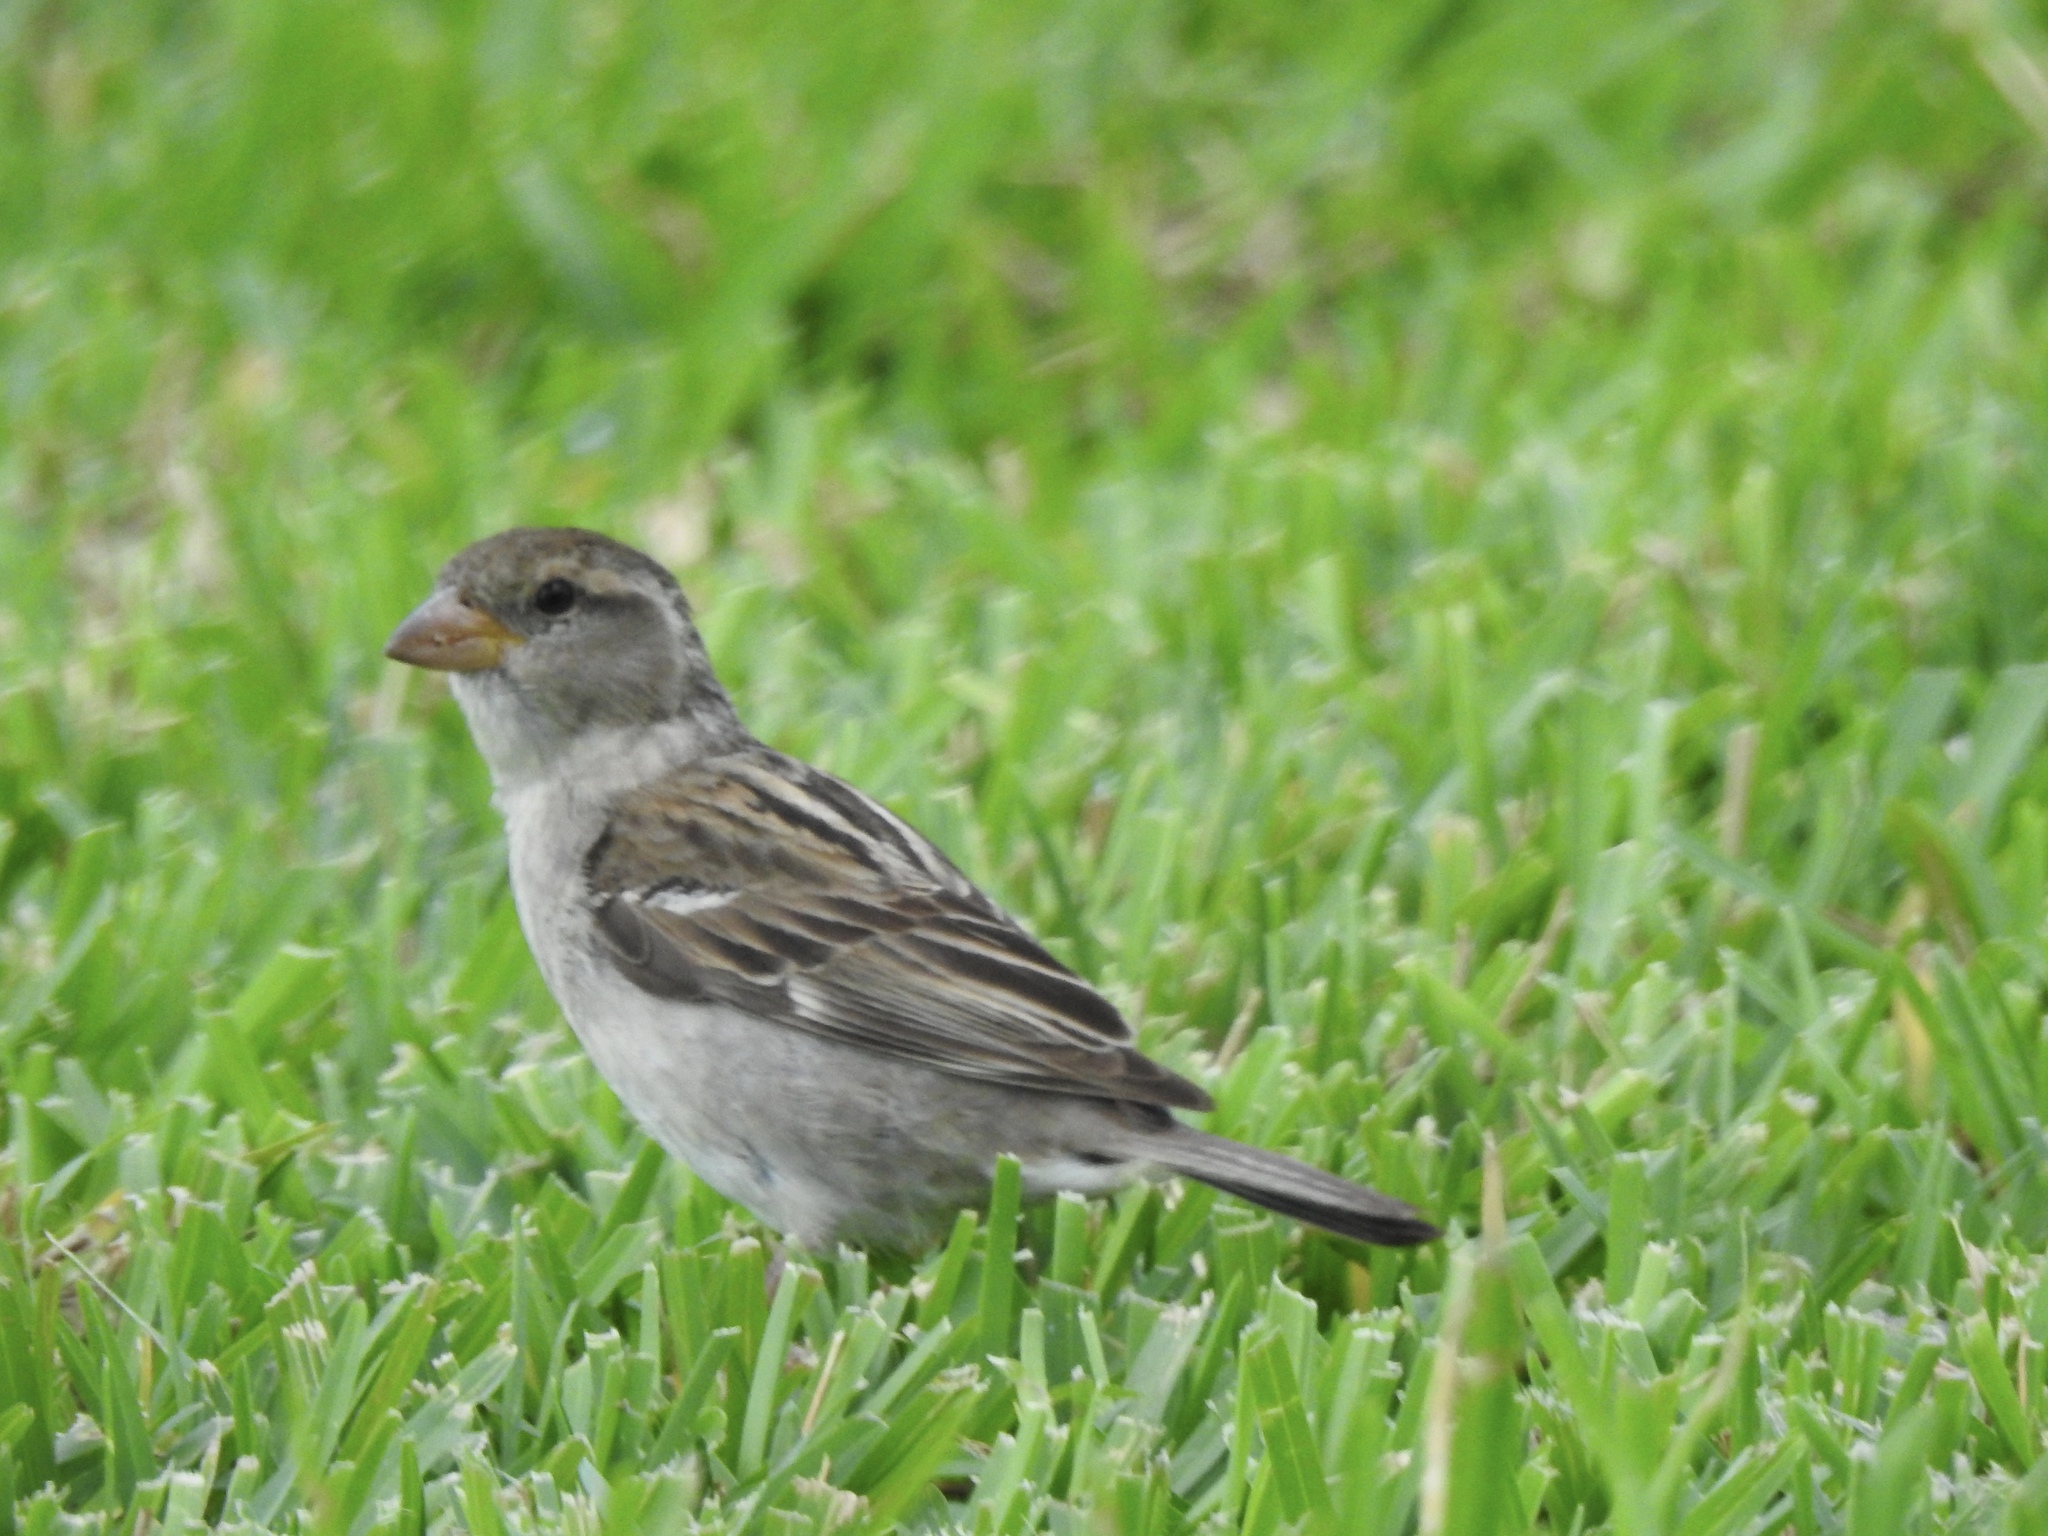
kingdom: Animalia
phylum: Chordata
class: Aves
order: Passeriformes
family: Passeridae
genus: Passer
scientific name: Passer domesticus
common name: House sparrow
